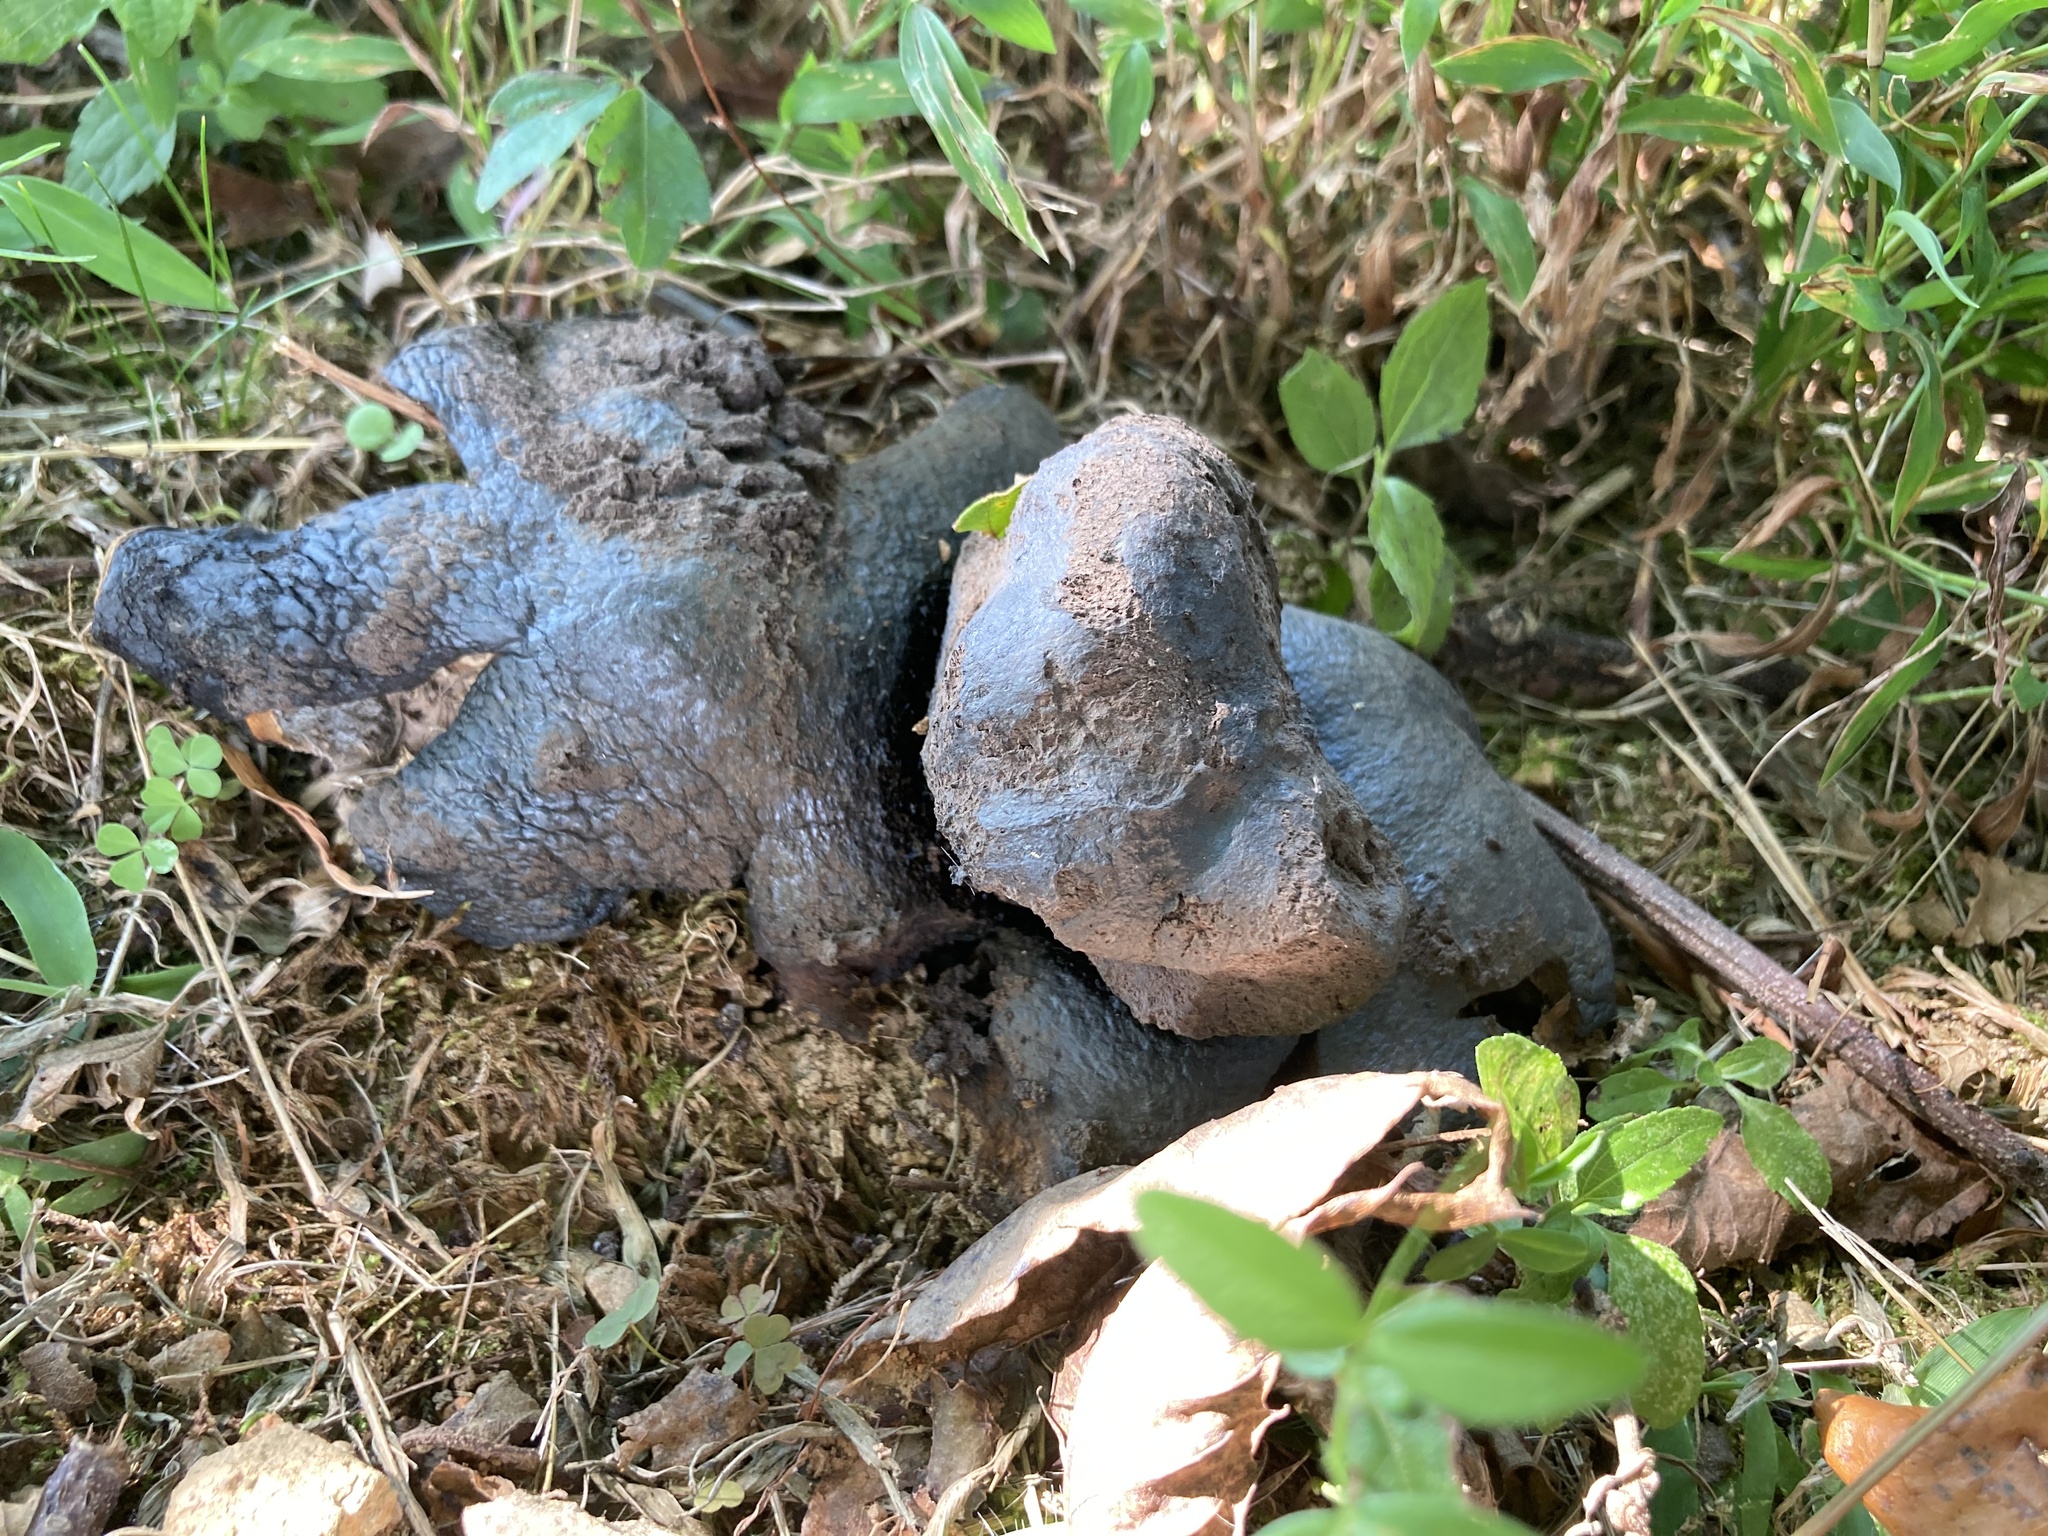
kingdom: Fungi
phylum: Basidiomycota
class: Agaricomycetes
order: Boletales
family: Sclerodermataceae
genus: Scleroderma
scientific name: Scleroderma polyrhizum
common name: Many-rooted earthball
